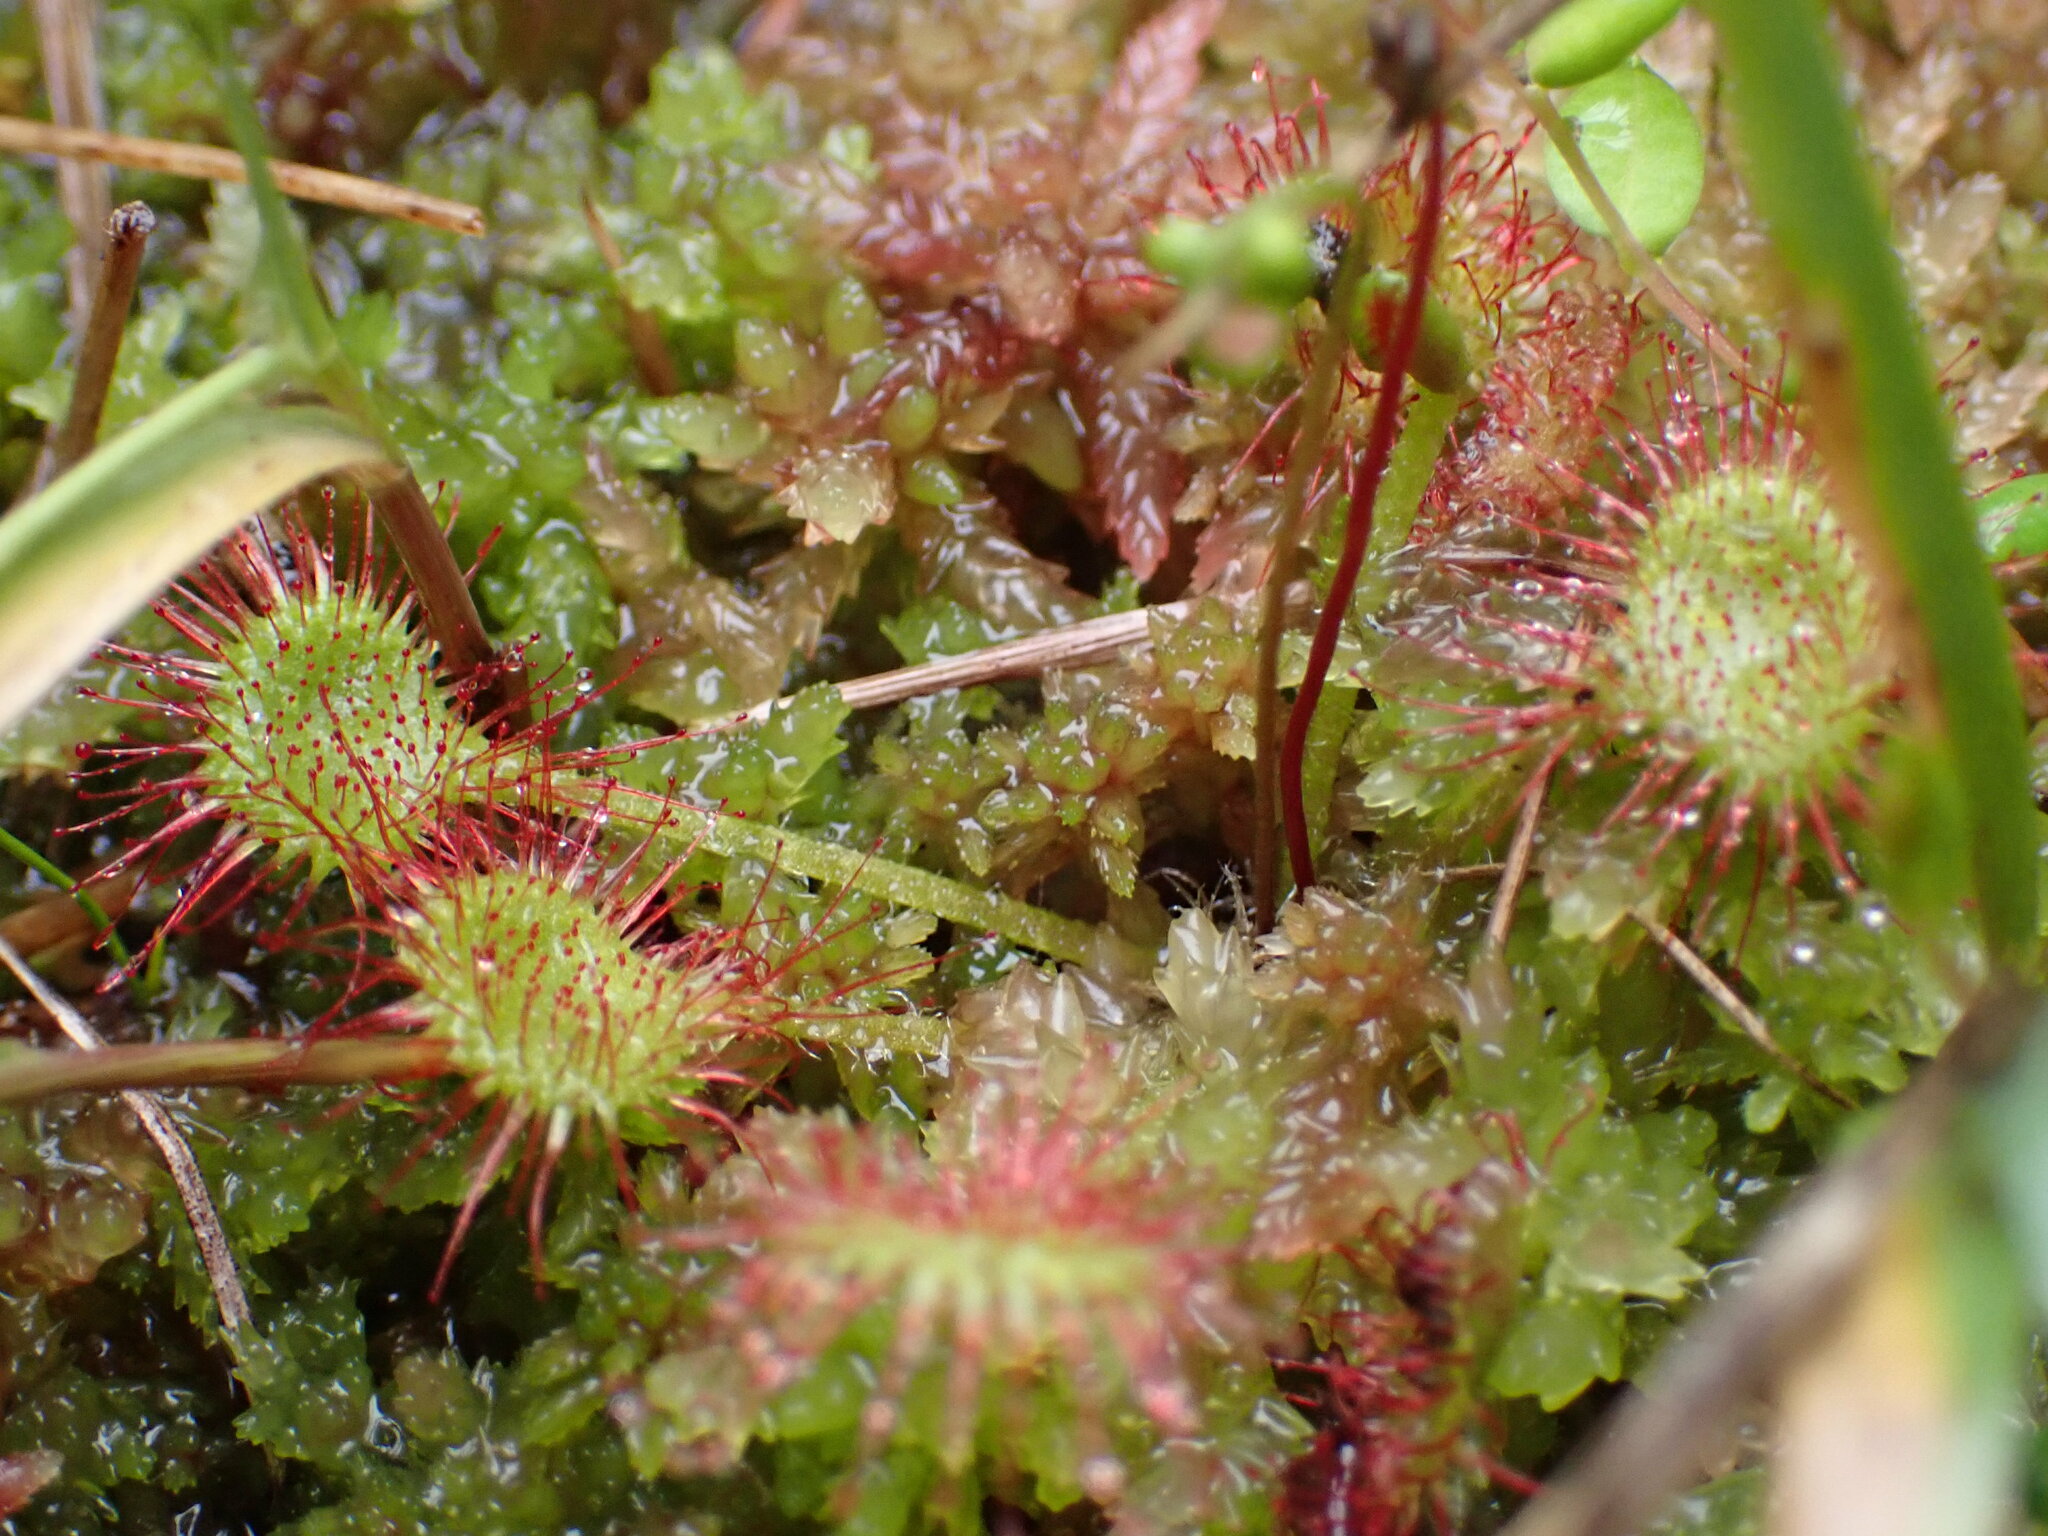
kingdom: Plantae
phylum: Tracheophyta
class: Magnoliopsida
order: Caryophyllales
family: Droseraceae
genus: Drosera
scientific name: Drosera rotundifolia
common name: Round-leaved sundew
